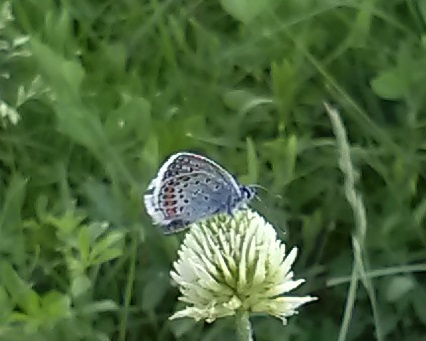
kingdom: Animalia
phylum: Arthropoda
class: Insecta
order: Lepidoptera
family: Lycaenidae
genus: Plebejus
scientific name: Plebejus argus
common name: Silver-studded blue
